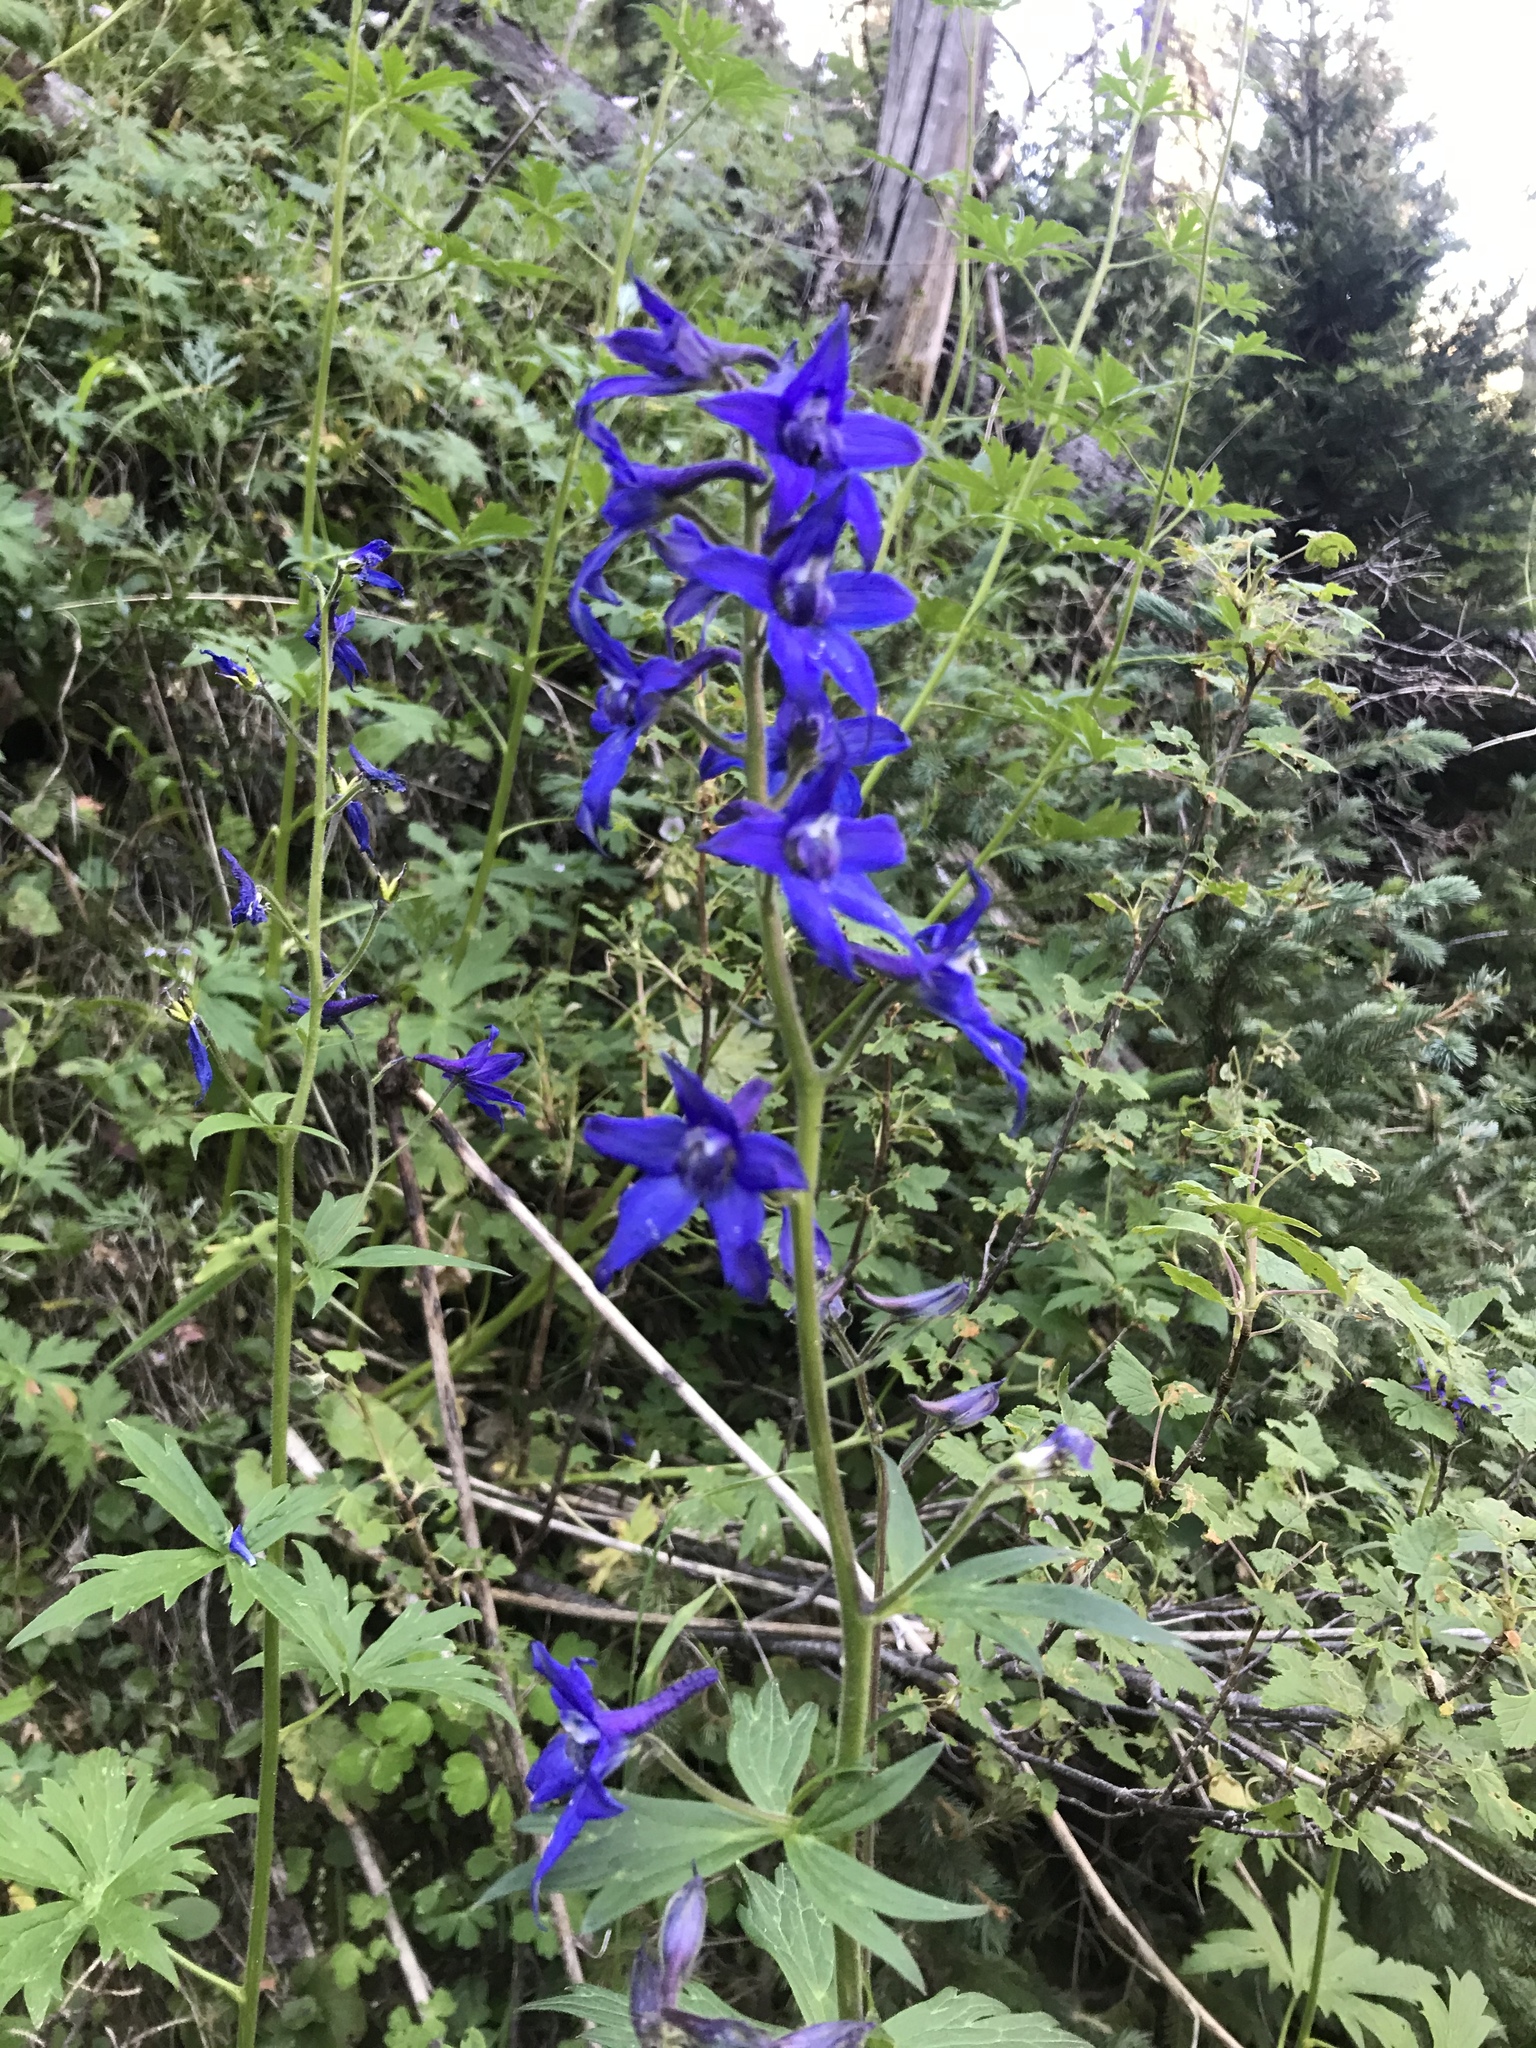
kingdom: Plantae
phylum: Tracheophyta
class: Magnoliopsida
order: Ranunculales
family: Ranunculaceae
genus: Delphinium
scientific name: Delphinium barbeyi
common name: Subalpine larkspur
